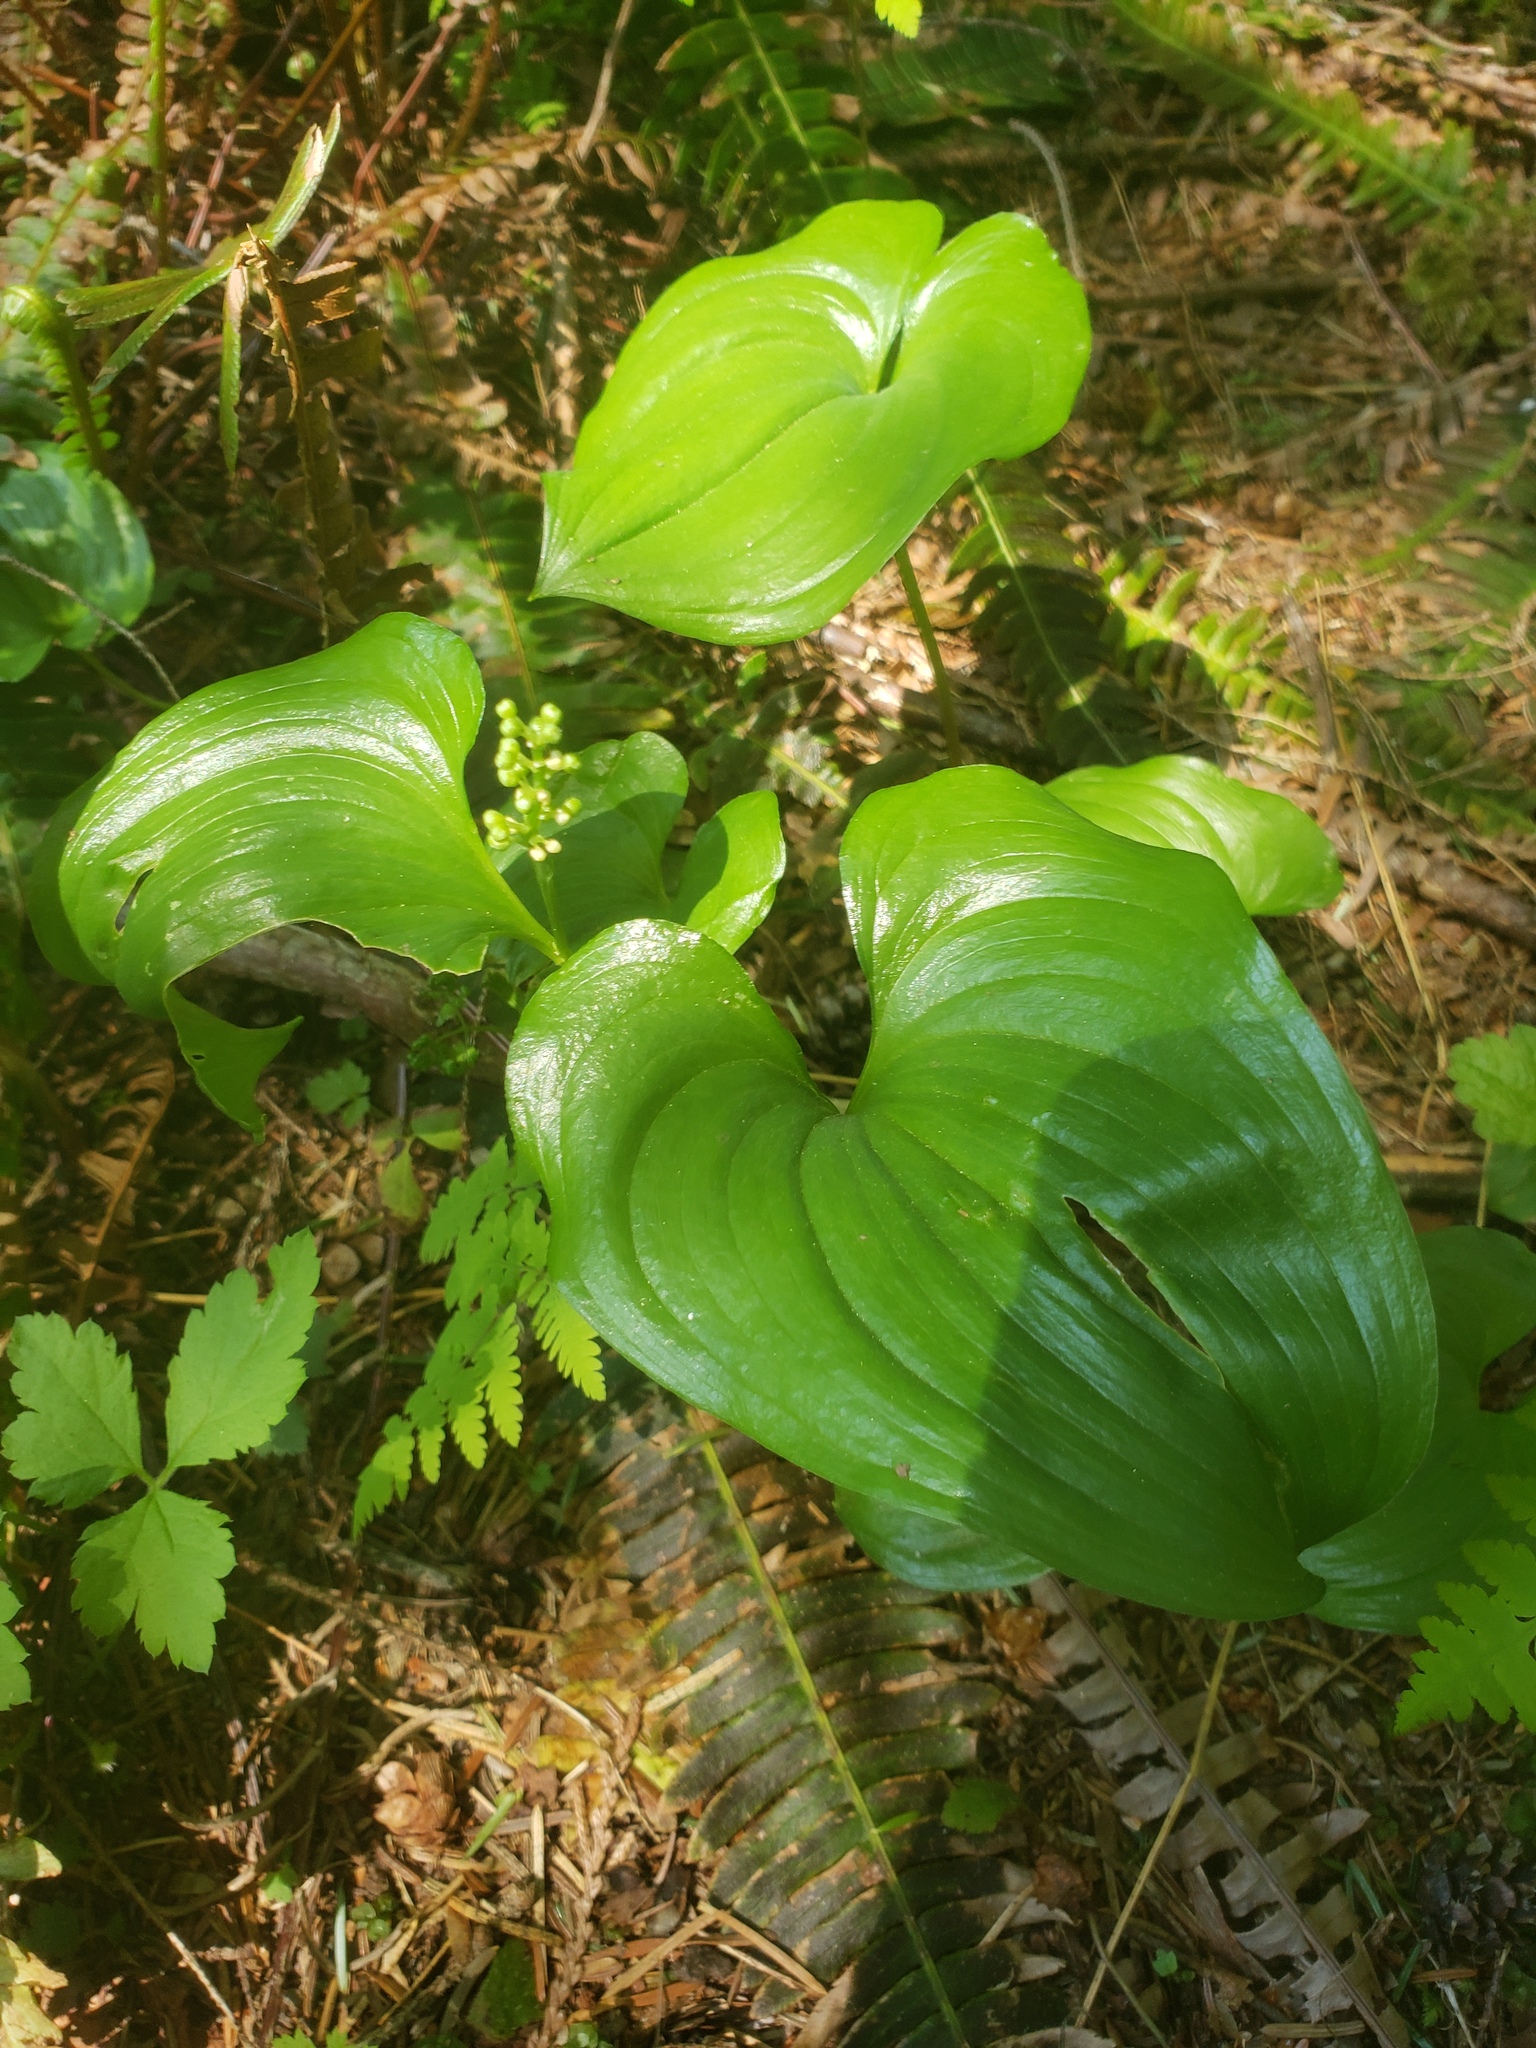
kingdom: Plantae
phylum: Tracheophyta
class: Liliopsida
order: Asparagales
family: Asparagaceae
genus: Maianthemum
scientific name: Maianthemum dilatatum
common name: False lily-of-the-valley
